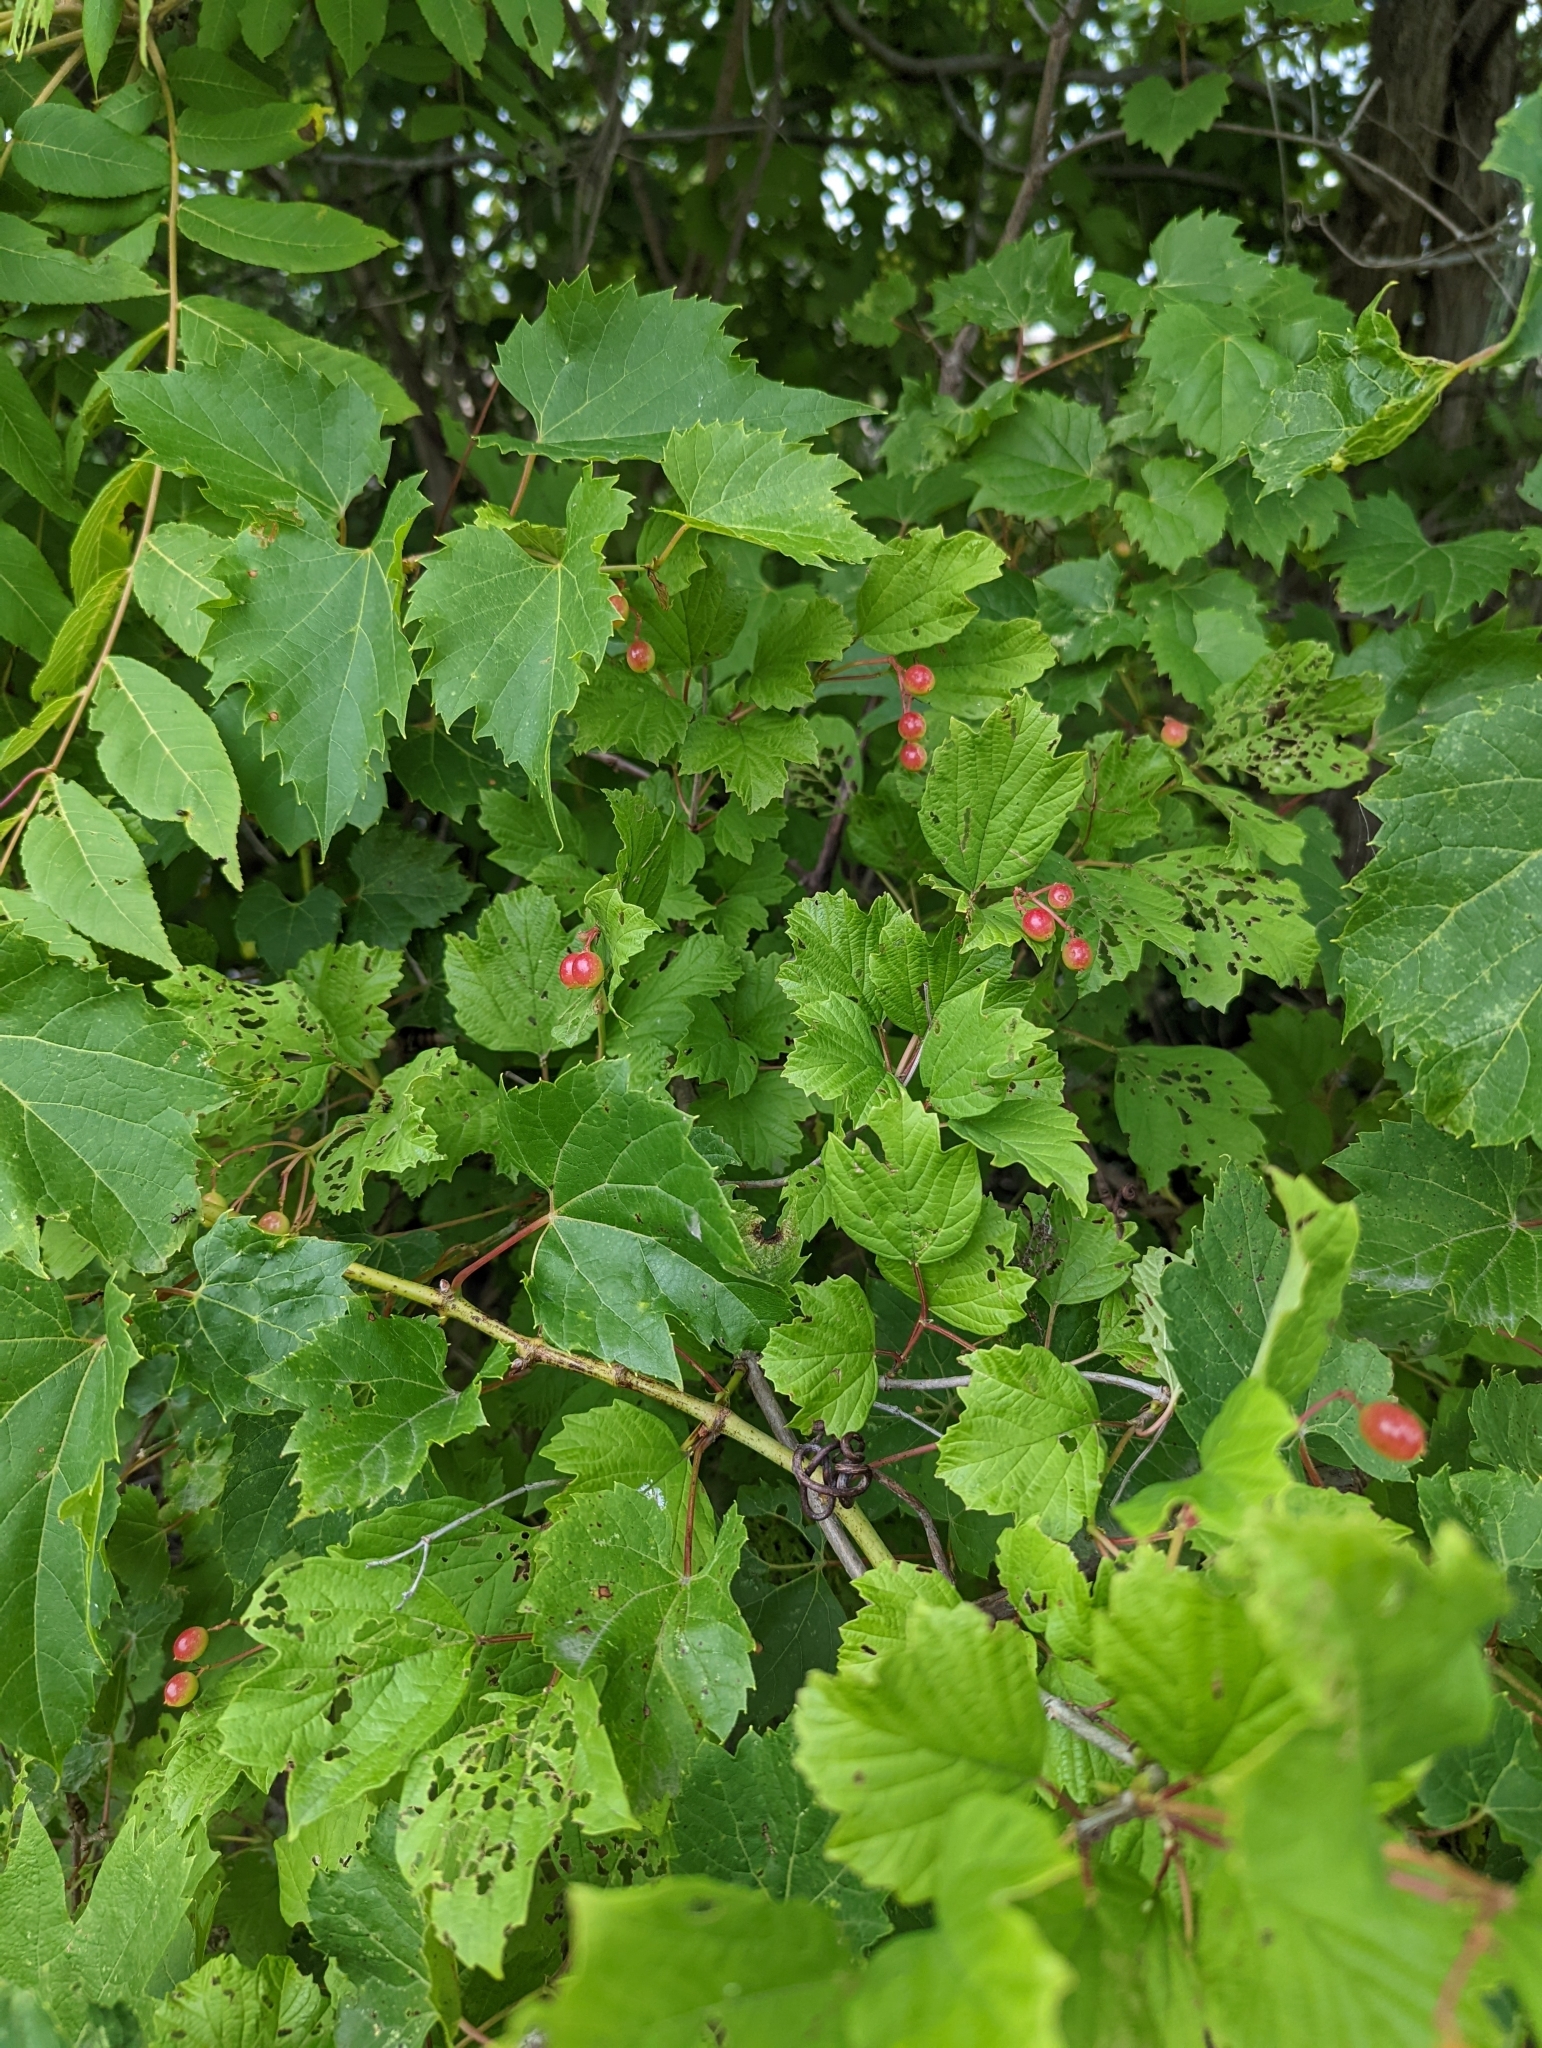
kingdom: Plantae
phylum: Tracheophyta
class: Magnoliopsida
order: Dipsacales
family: Viburnaceae
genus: Viburnum
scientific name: Viburnum opulus
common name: Guelder-rose
